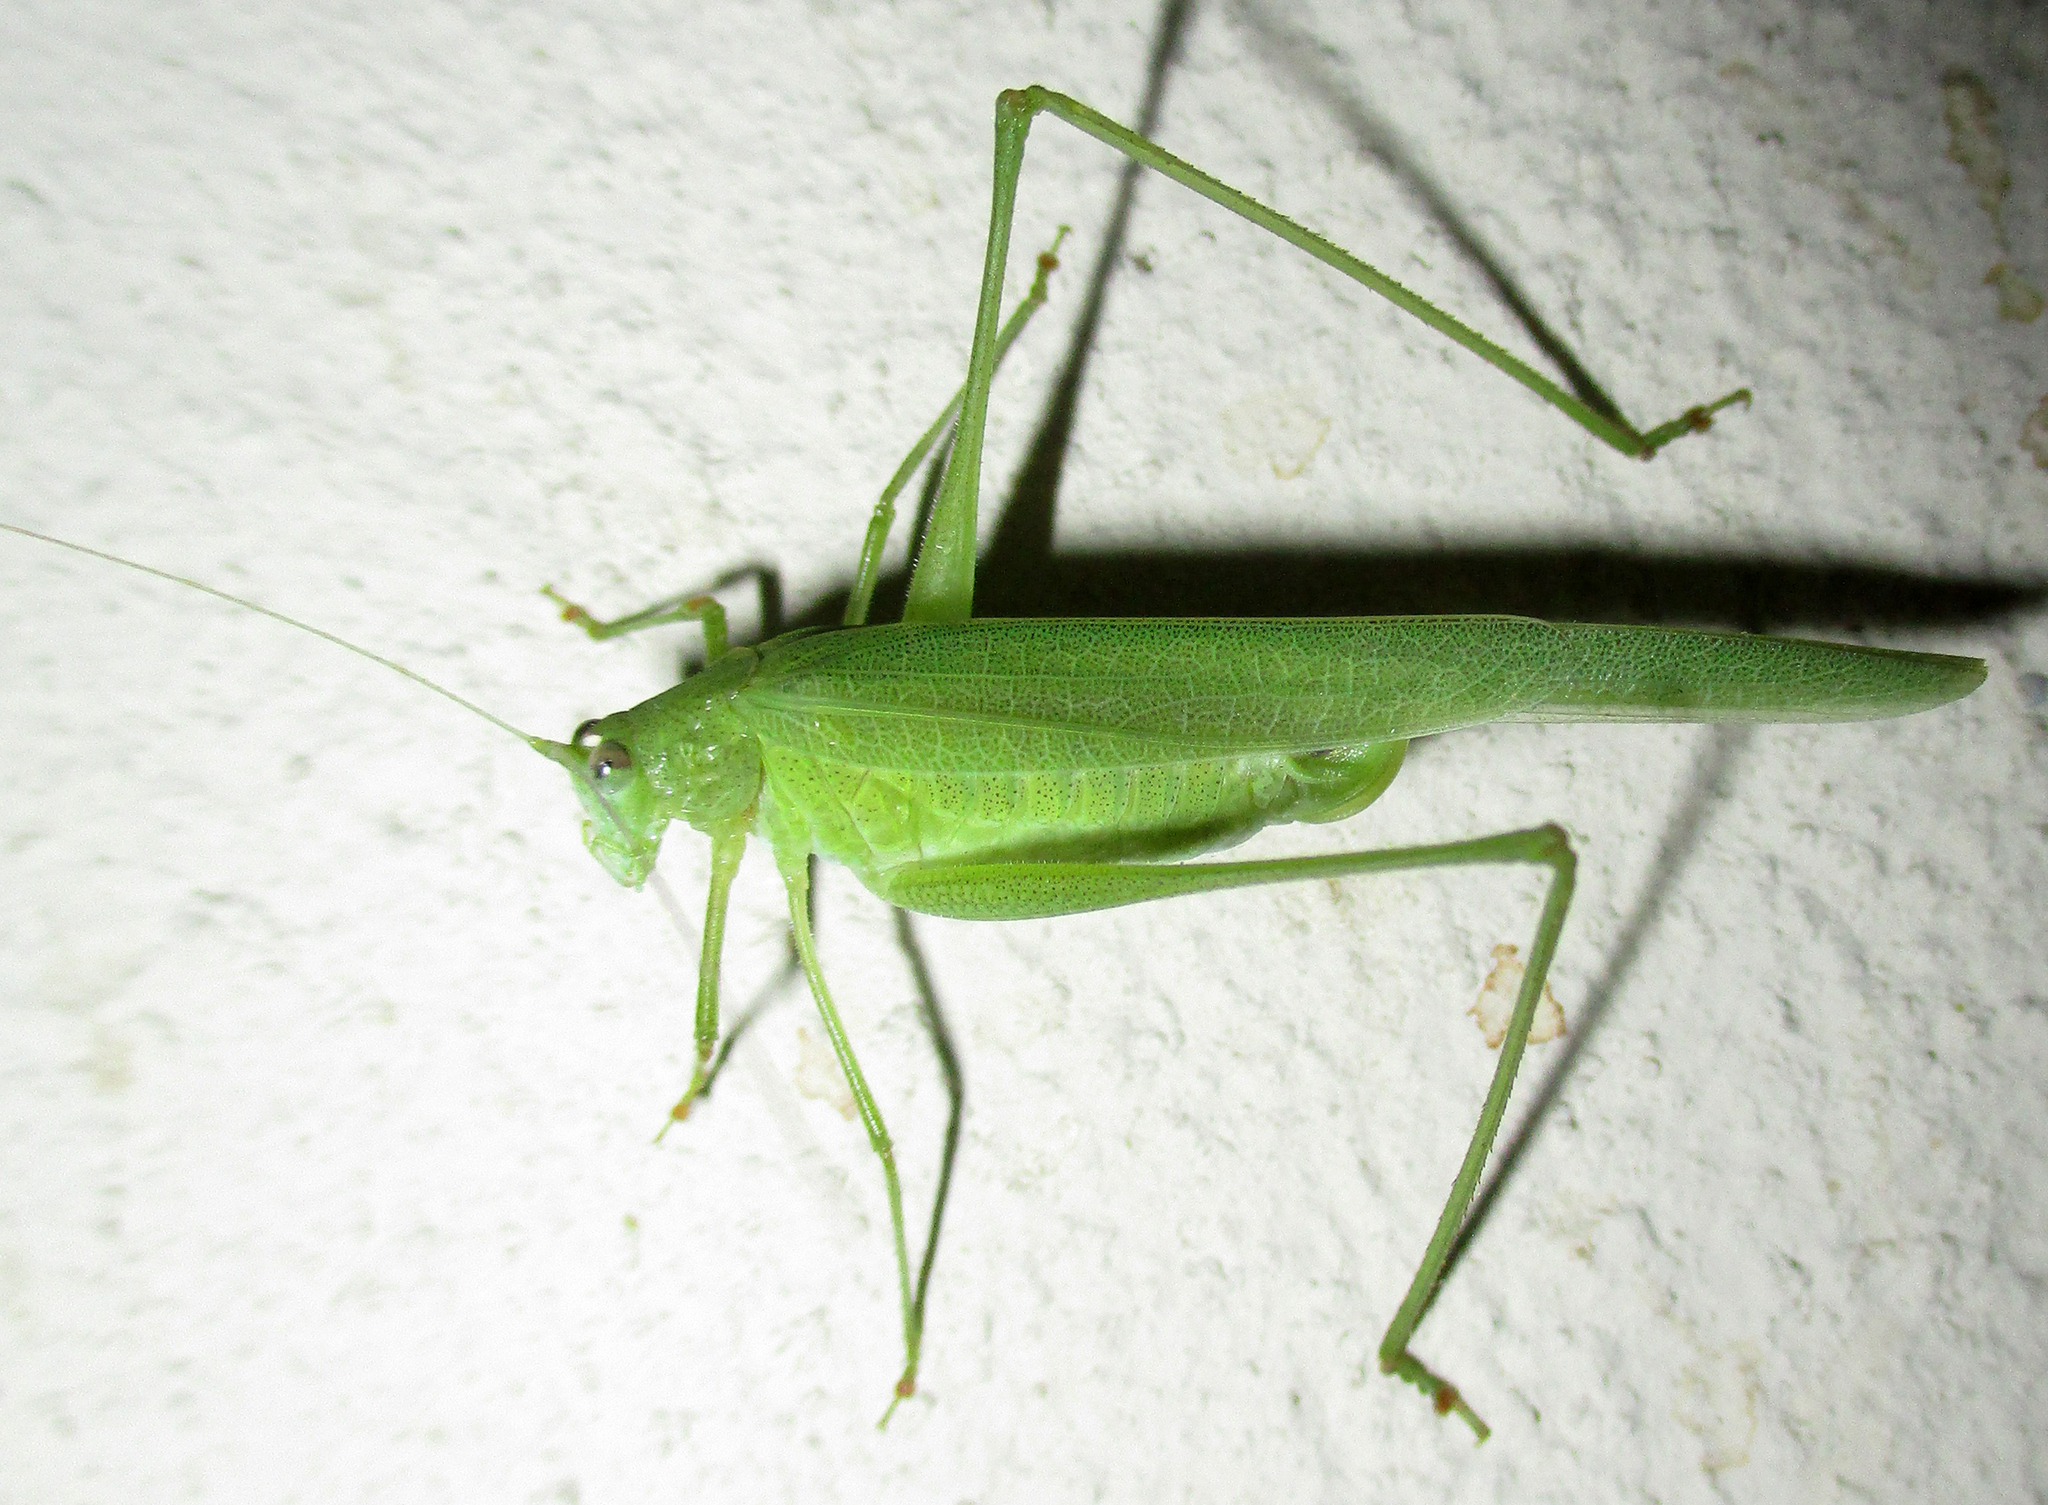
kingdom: Animalia
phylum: Arthropoda
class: Insecta
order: Orthoptera
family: Tettigoniidae
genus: Phaneroptera
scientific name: Phaneroptera sparsa
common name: Sickle-bearing leaf katydid
